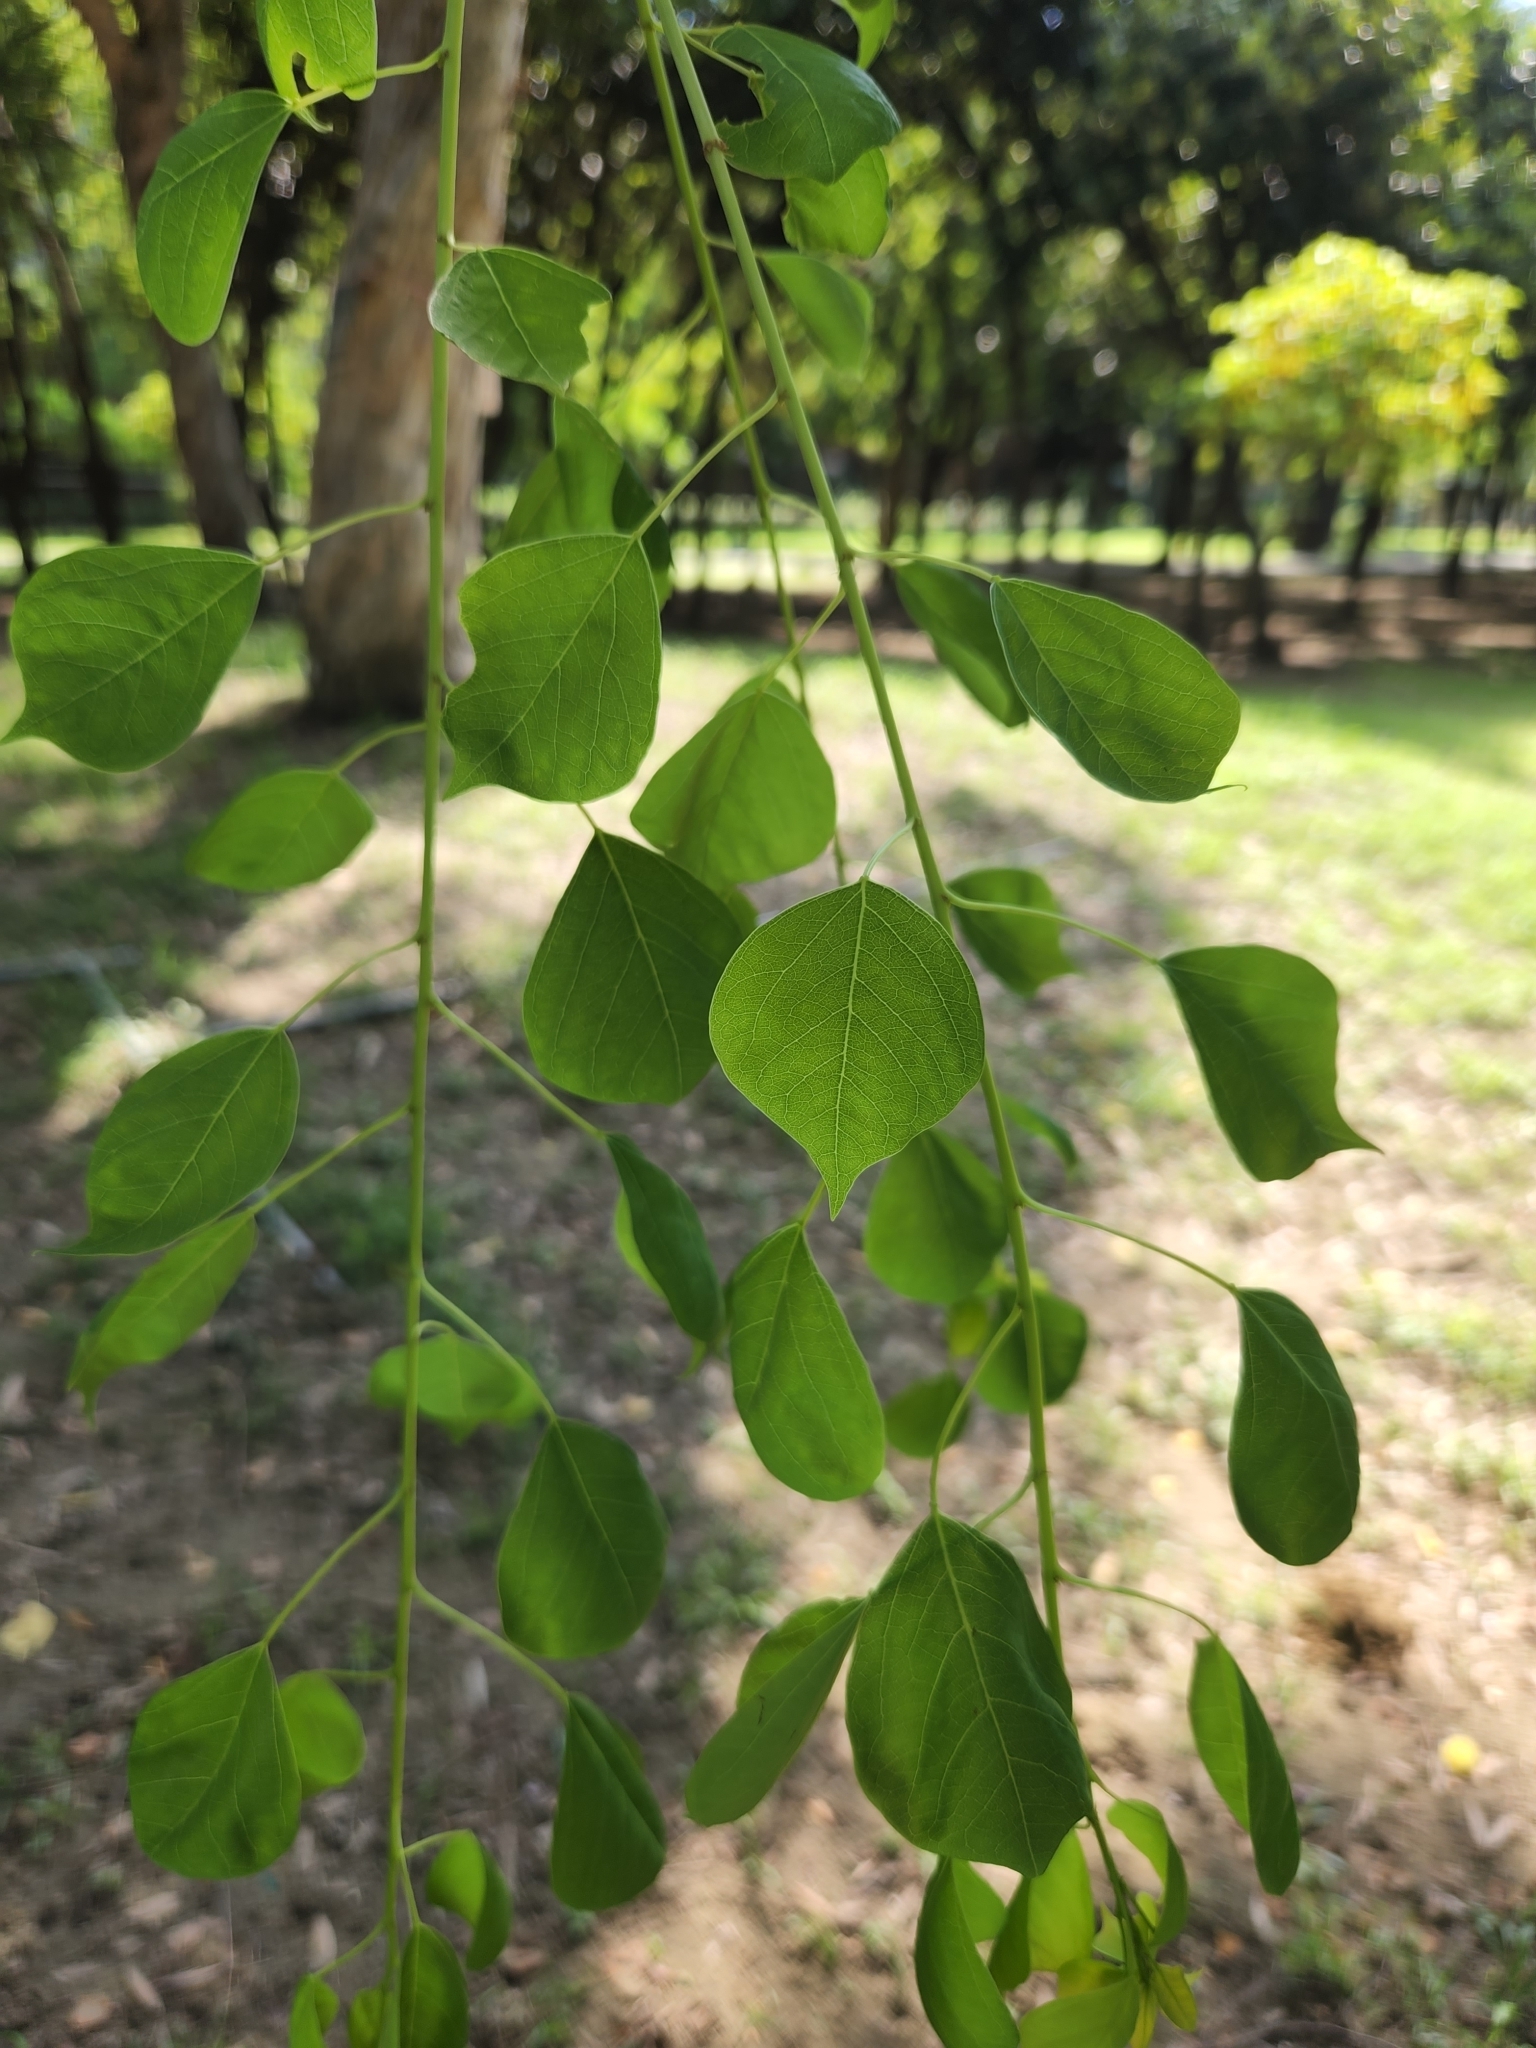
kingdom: Plantae
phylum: Tracheophyta
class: Magnoliopsida
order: Malpighiales
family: Euphorbiaceae
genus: Triadica
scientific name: Triadica sebifera
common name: Chinese tallow
